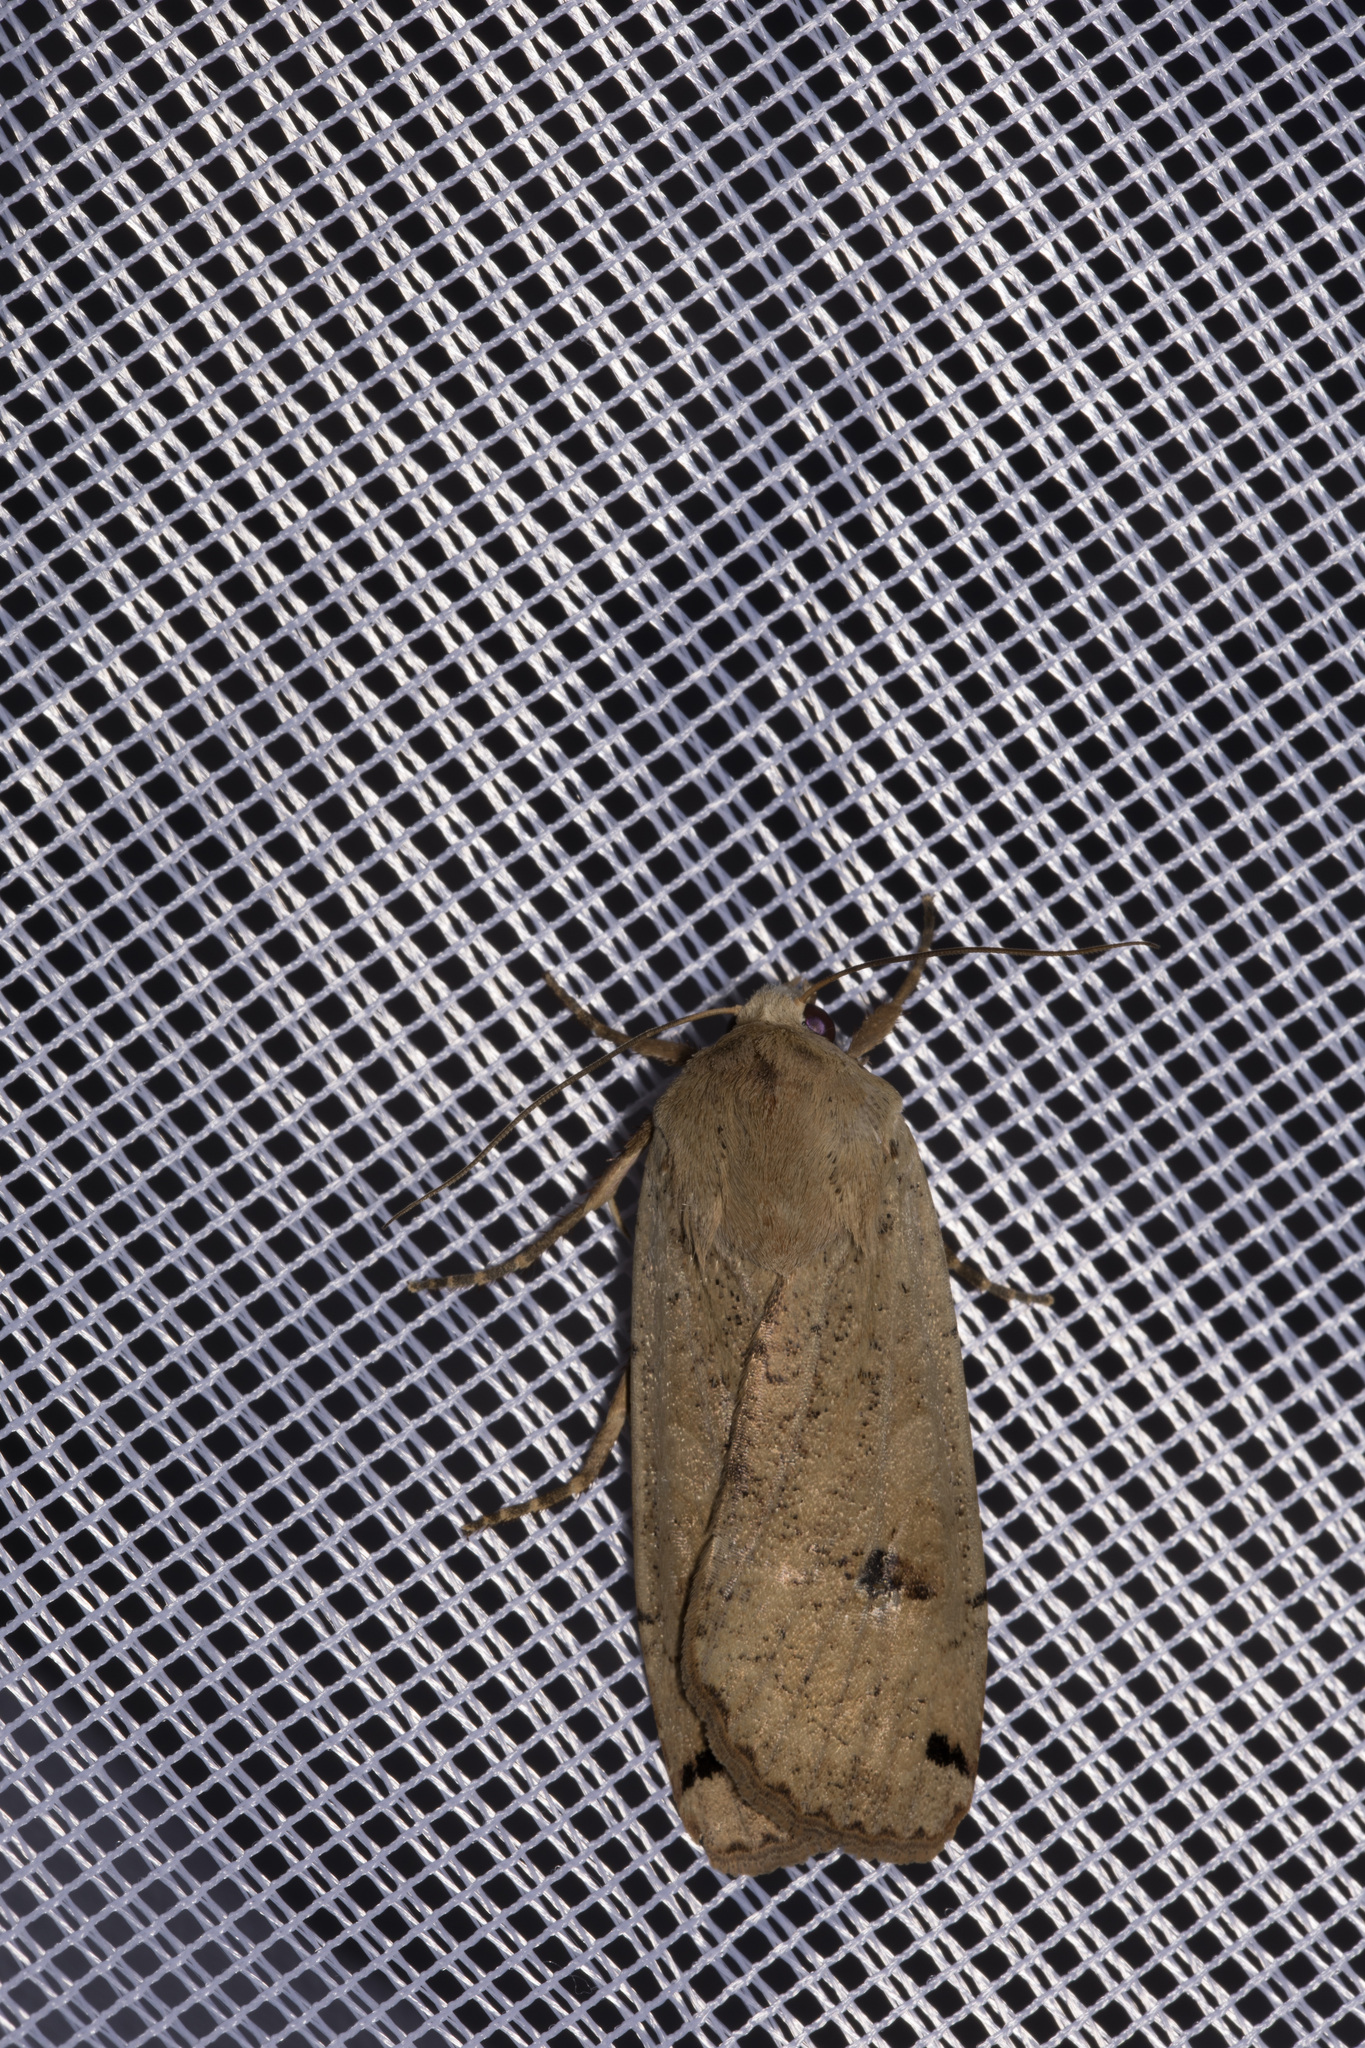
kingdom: Animalia
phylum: Arthropoda
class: Insecta
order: Lepidoptera
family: Noctuidae
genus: Noctua
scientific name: Noctua pronuba
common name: Large yellow underwing
